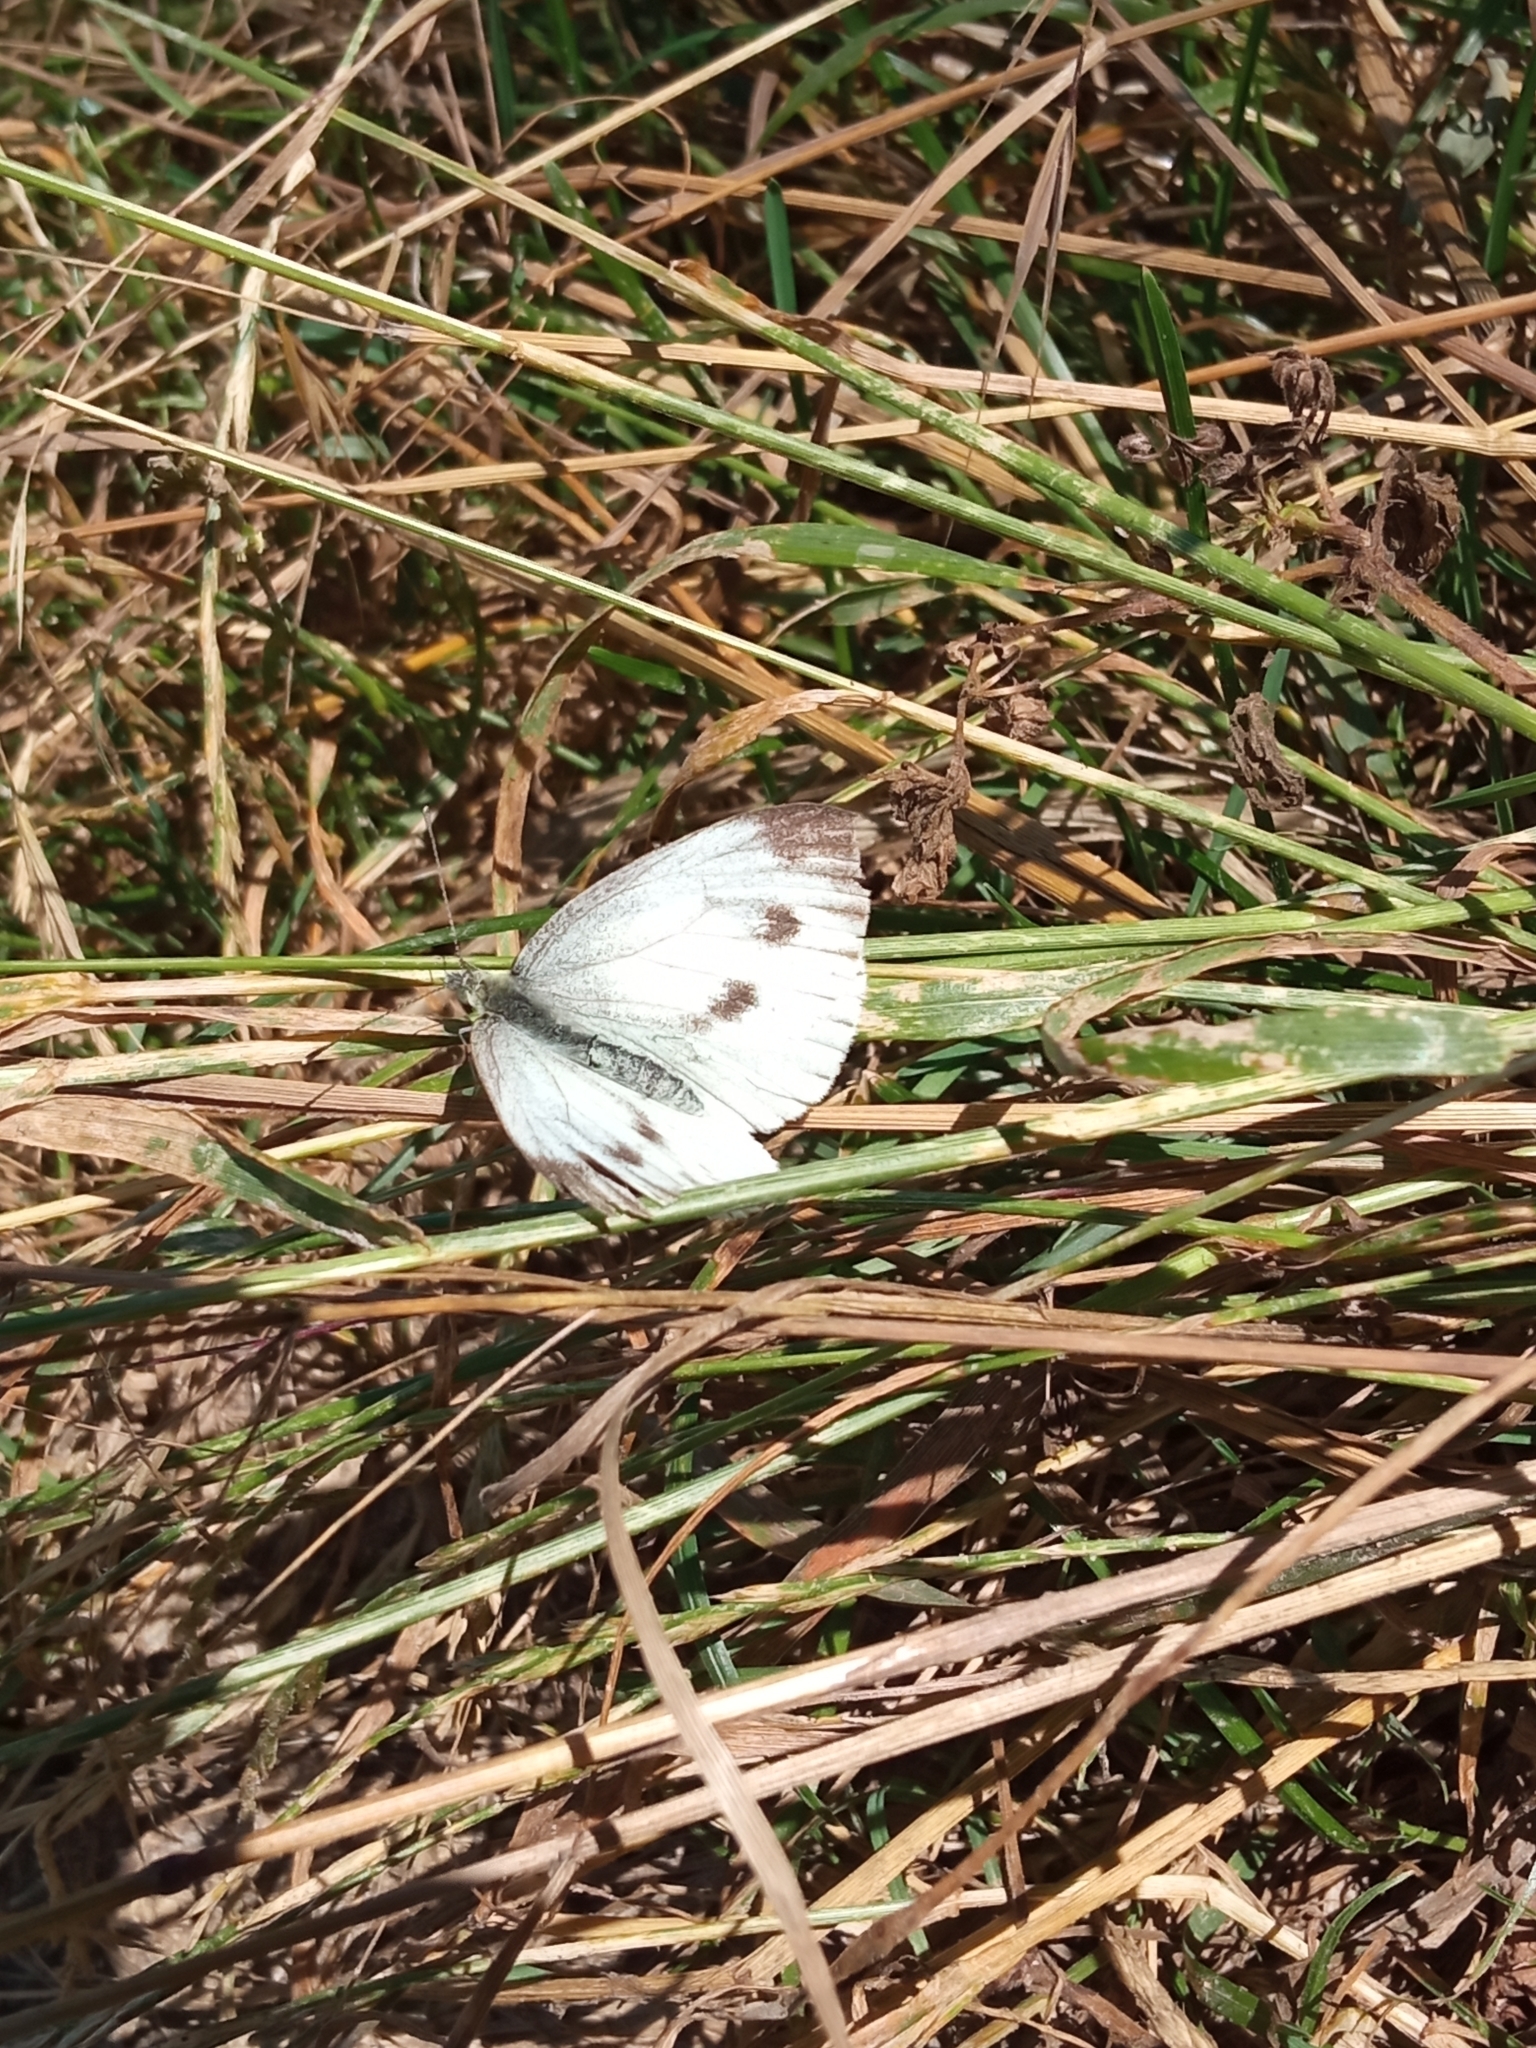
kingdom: Animalia
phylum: Arthropoda
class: Insecta
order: Lepidoptera
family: Pieridae
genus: Pieris
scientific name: Pieris napi
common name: Green-veined white
